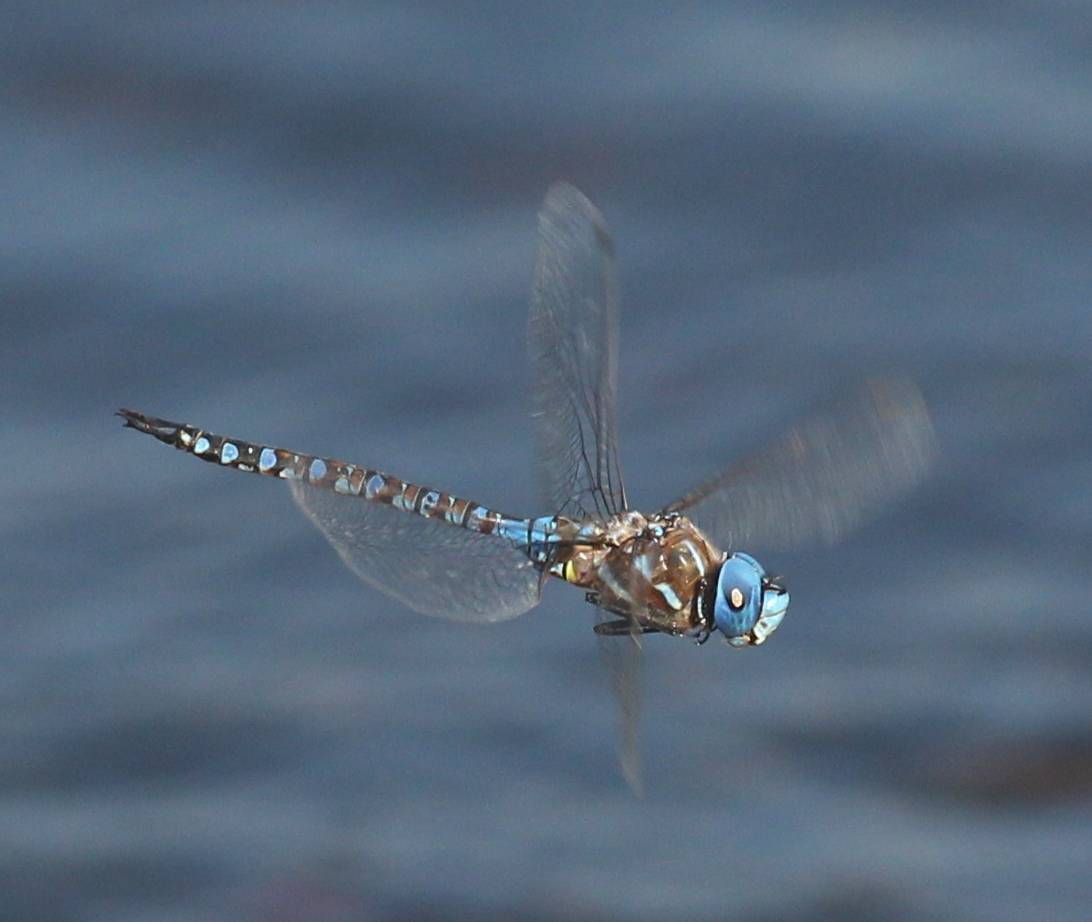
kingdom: Animalia
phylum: Arthropoda
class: Insecta
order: Odonata
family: Aeshnidae
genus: Rhionaeschna
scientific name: Rhionaeschna multicolor
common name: Blue-eyed darner
